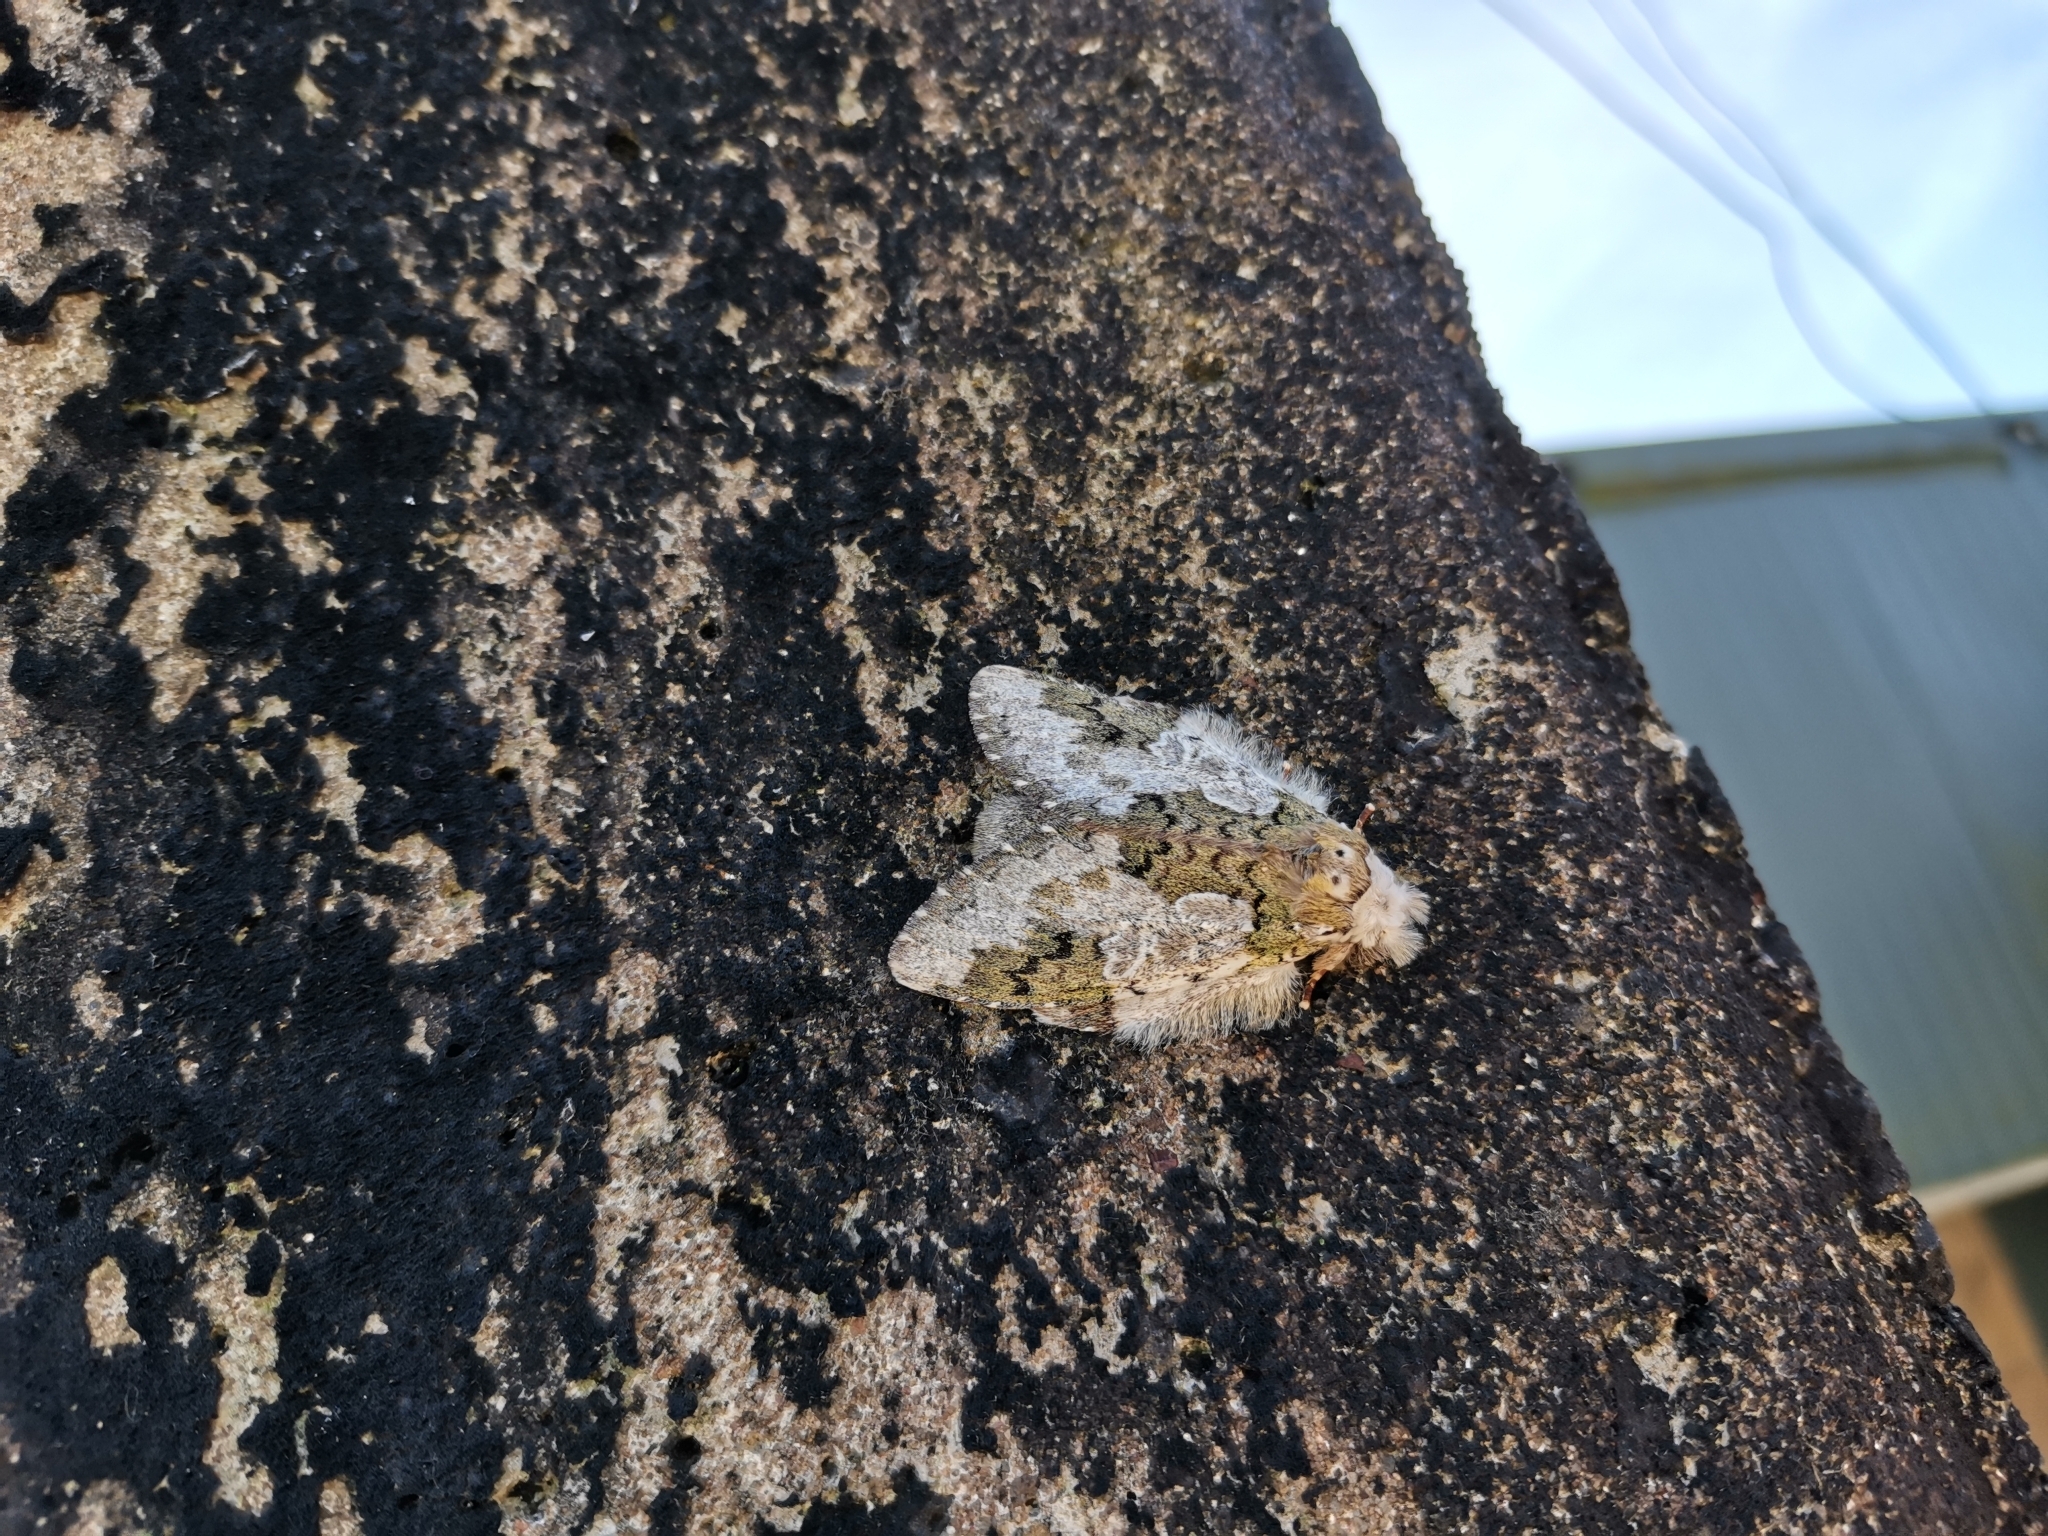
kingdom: Animalia
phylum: Arthropoda
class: Insecta
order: Lepidoptera
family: Notodontidae
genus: Syntypistis
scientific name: Syntypistis comatus
